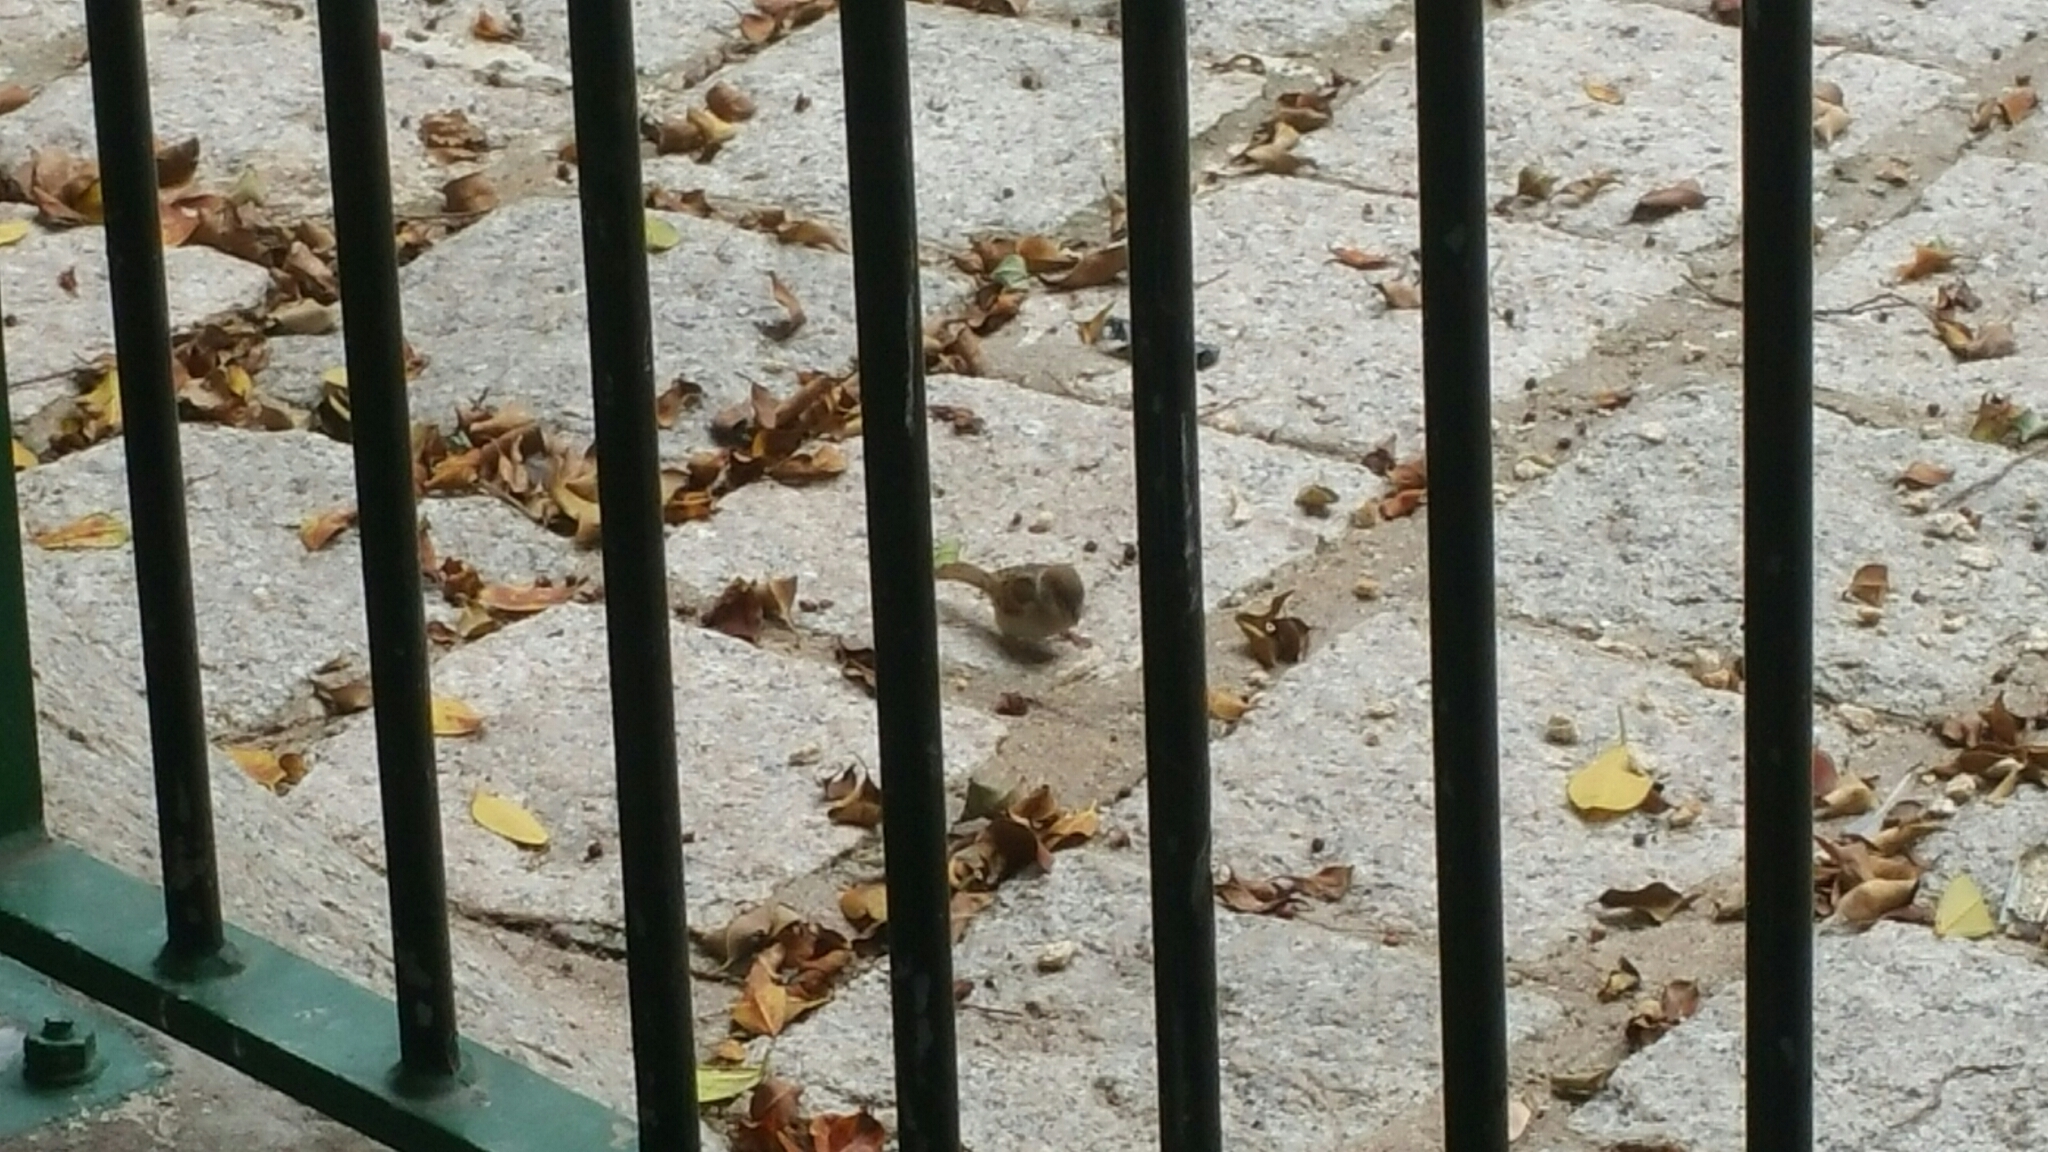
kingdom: Animalia
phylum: Chordata
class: Aves
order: Passeriformes
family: Passeridae
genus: Passer
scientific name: Passer montanus
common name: Eurasian tree sparrow
